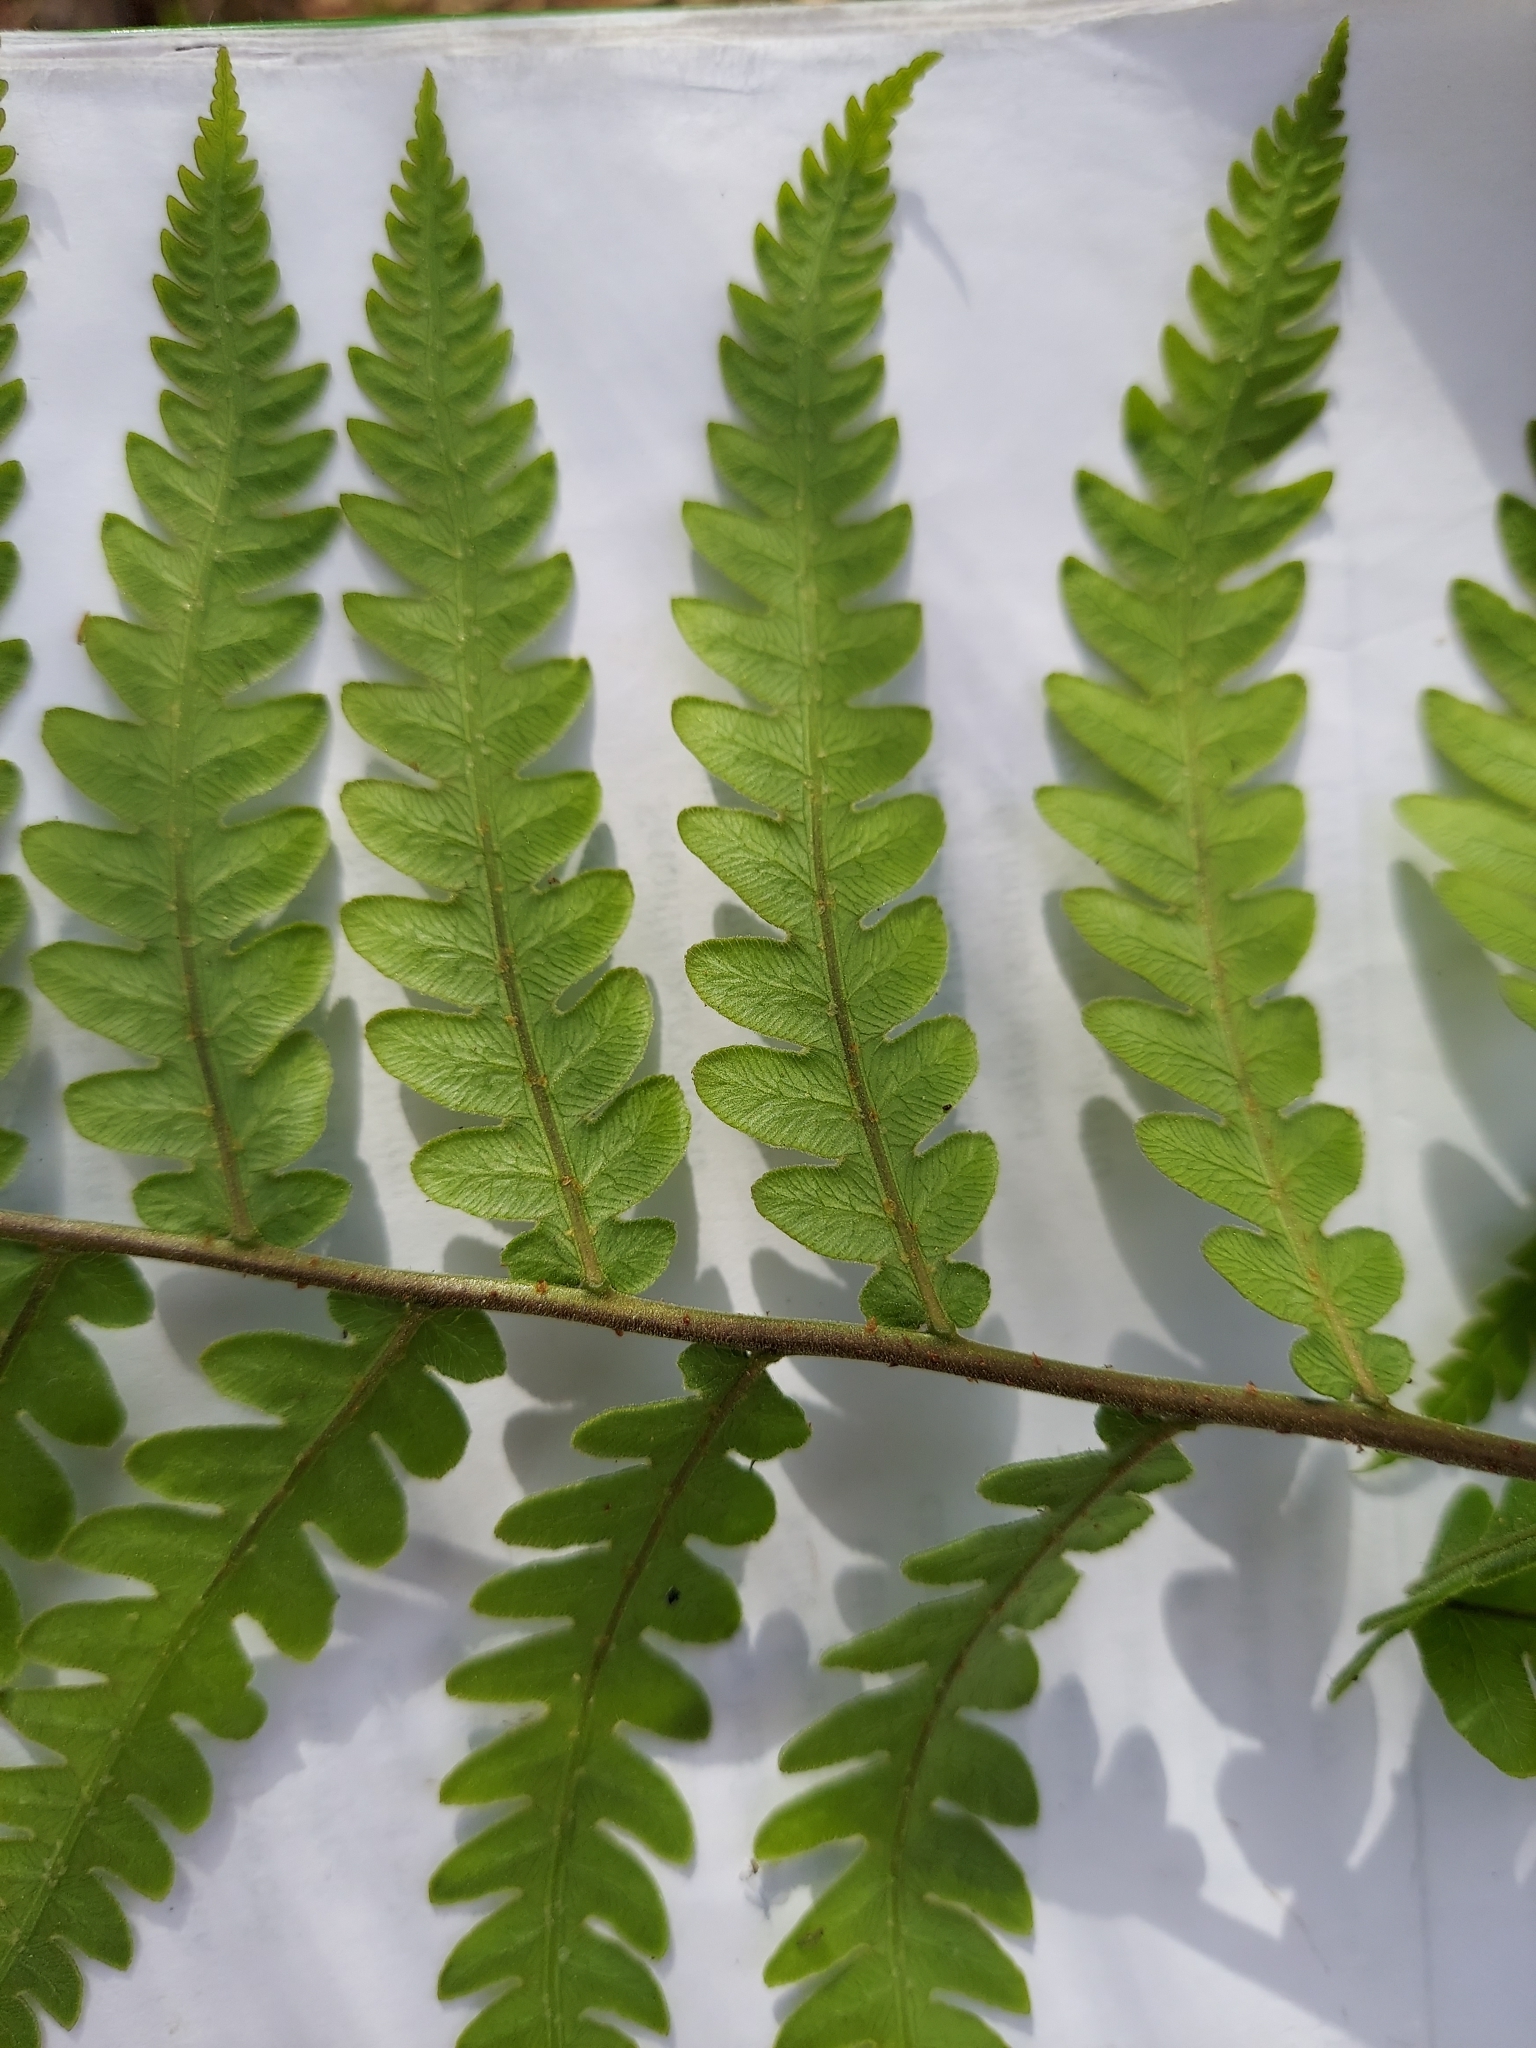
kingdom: Plantae
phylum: Tracheophyta
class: Polypodiopsida
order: Polypodiales
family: Blechnaceae
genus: Anchistea
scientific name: Anchistea virginica
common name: Virginia chain fern
